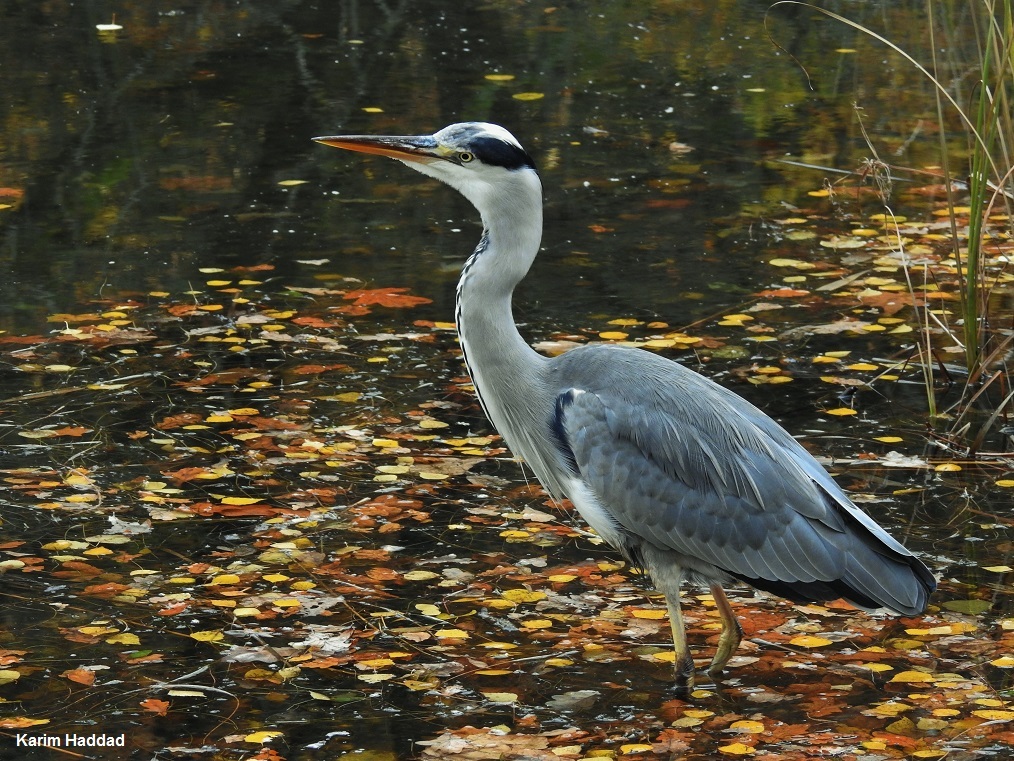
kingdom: Animalia
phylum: Chordata
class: Aves
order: Pelecaniformes
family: Ardeidae
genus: Ardea
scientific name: Ardea cinerea
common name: Grey heron
